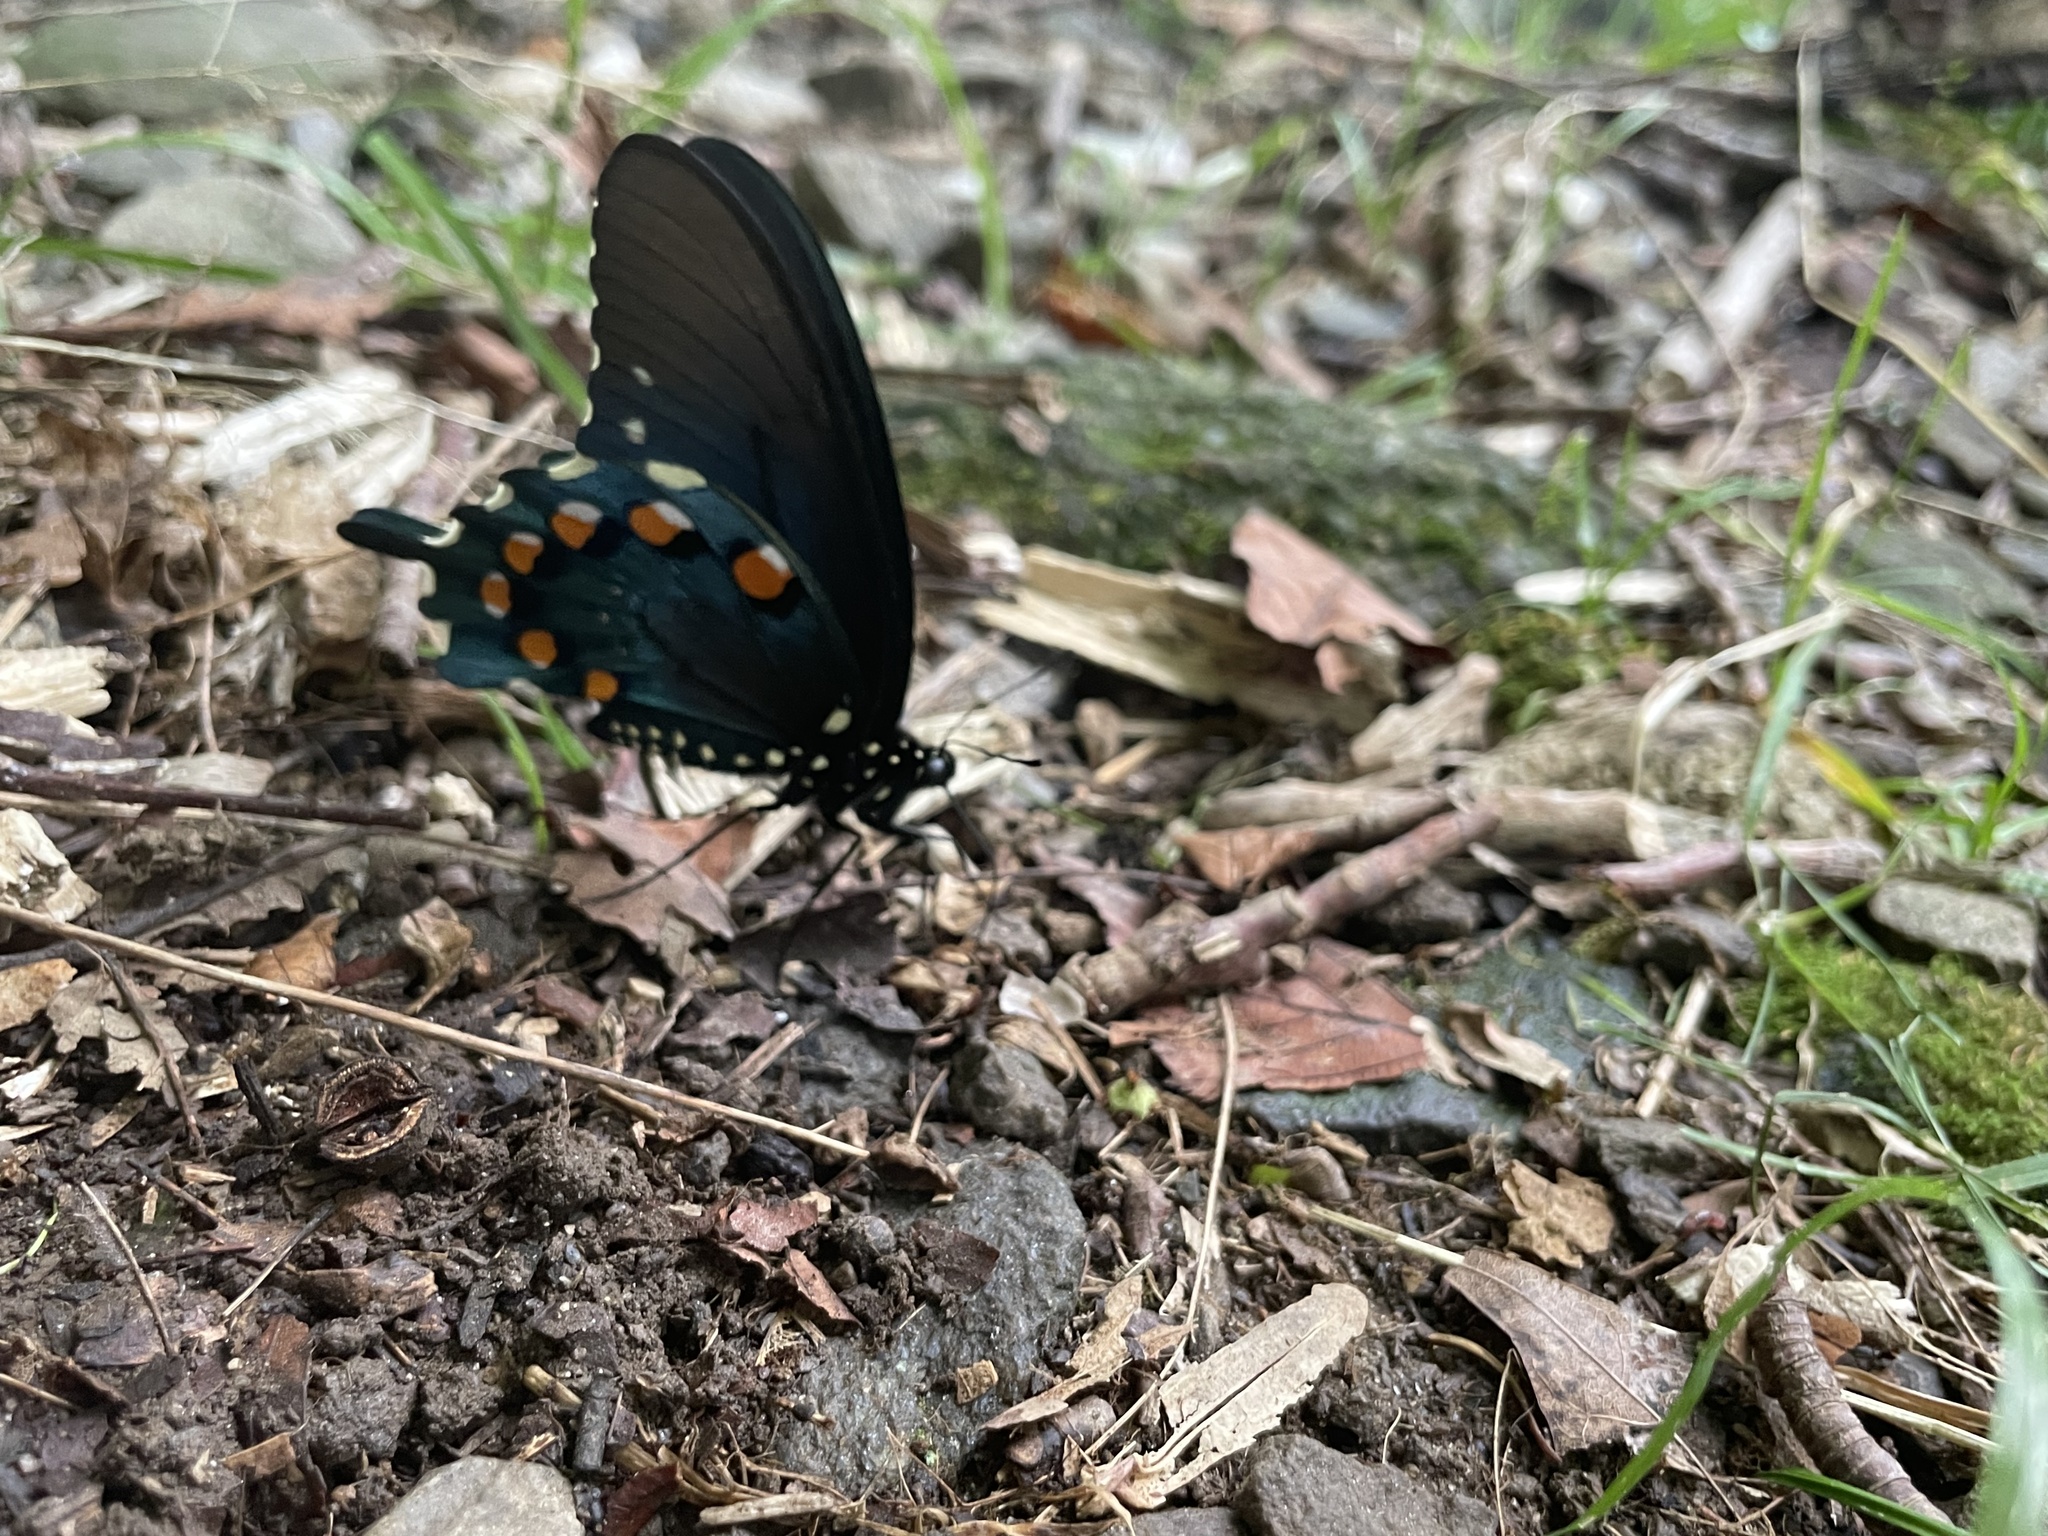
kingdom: Animalia
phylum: Arthropoda
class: Insecta
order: Lepidoptera
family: Papilionidae
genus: Battus
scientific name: Battus philenor
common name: Pipevine swallowtail
